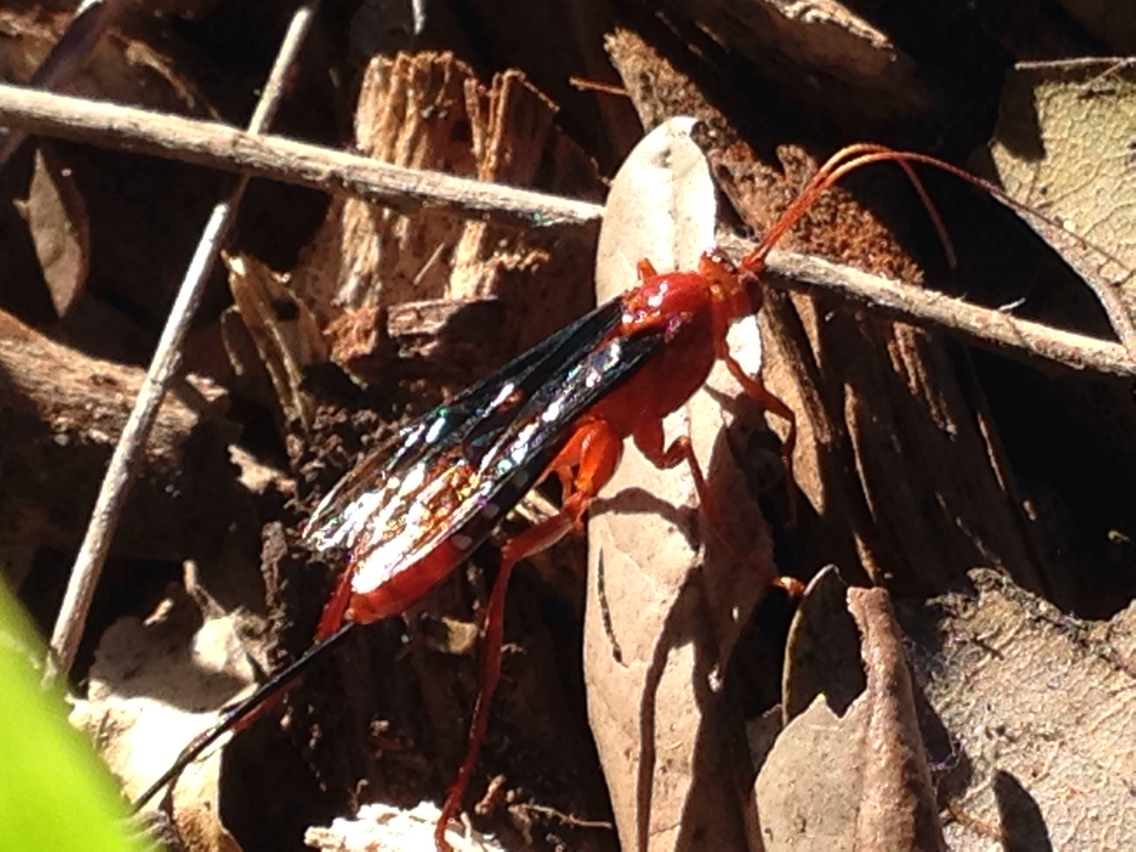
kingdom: Animalia
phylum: Arthropoda
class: Insecta
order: Hymenoptera
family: Ichneumonidae
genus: Lissopimpla
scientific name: Lissopimpla excelsa
